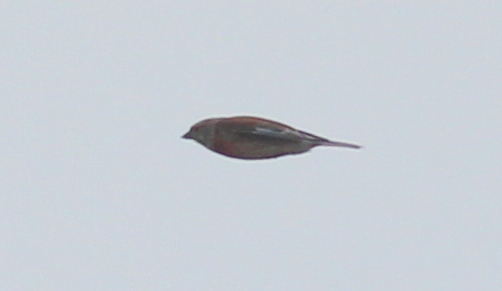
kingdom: Animalia
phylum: Chordata
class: Aves
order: Passeriformes
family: Fringillidae
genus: Linaria
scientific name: Linaria cannabina
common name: Common linnet
